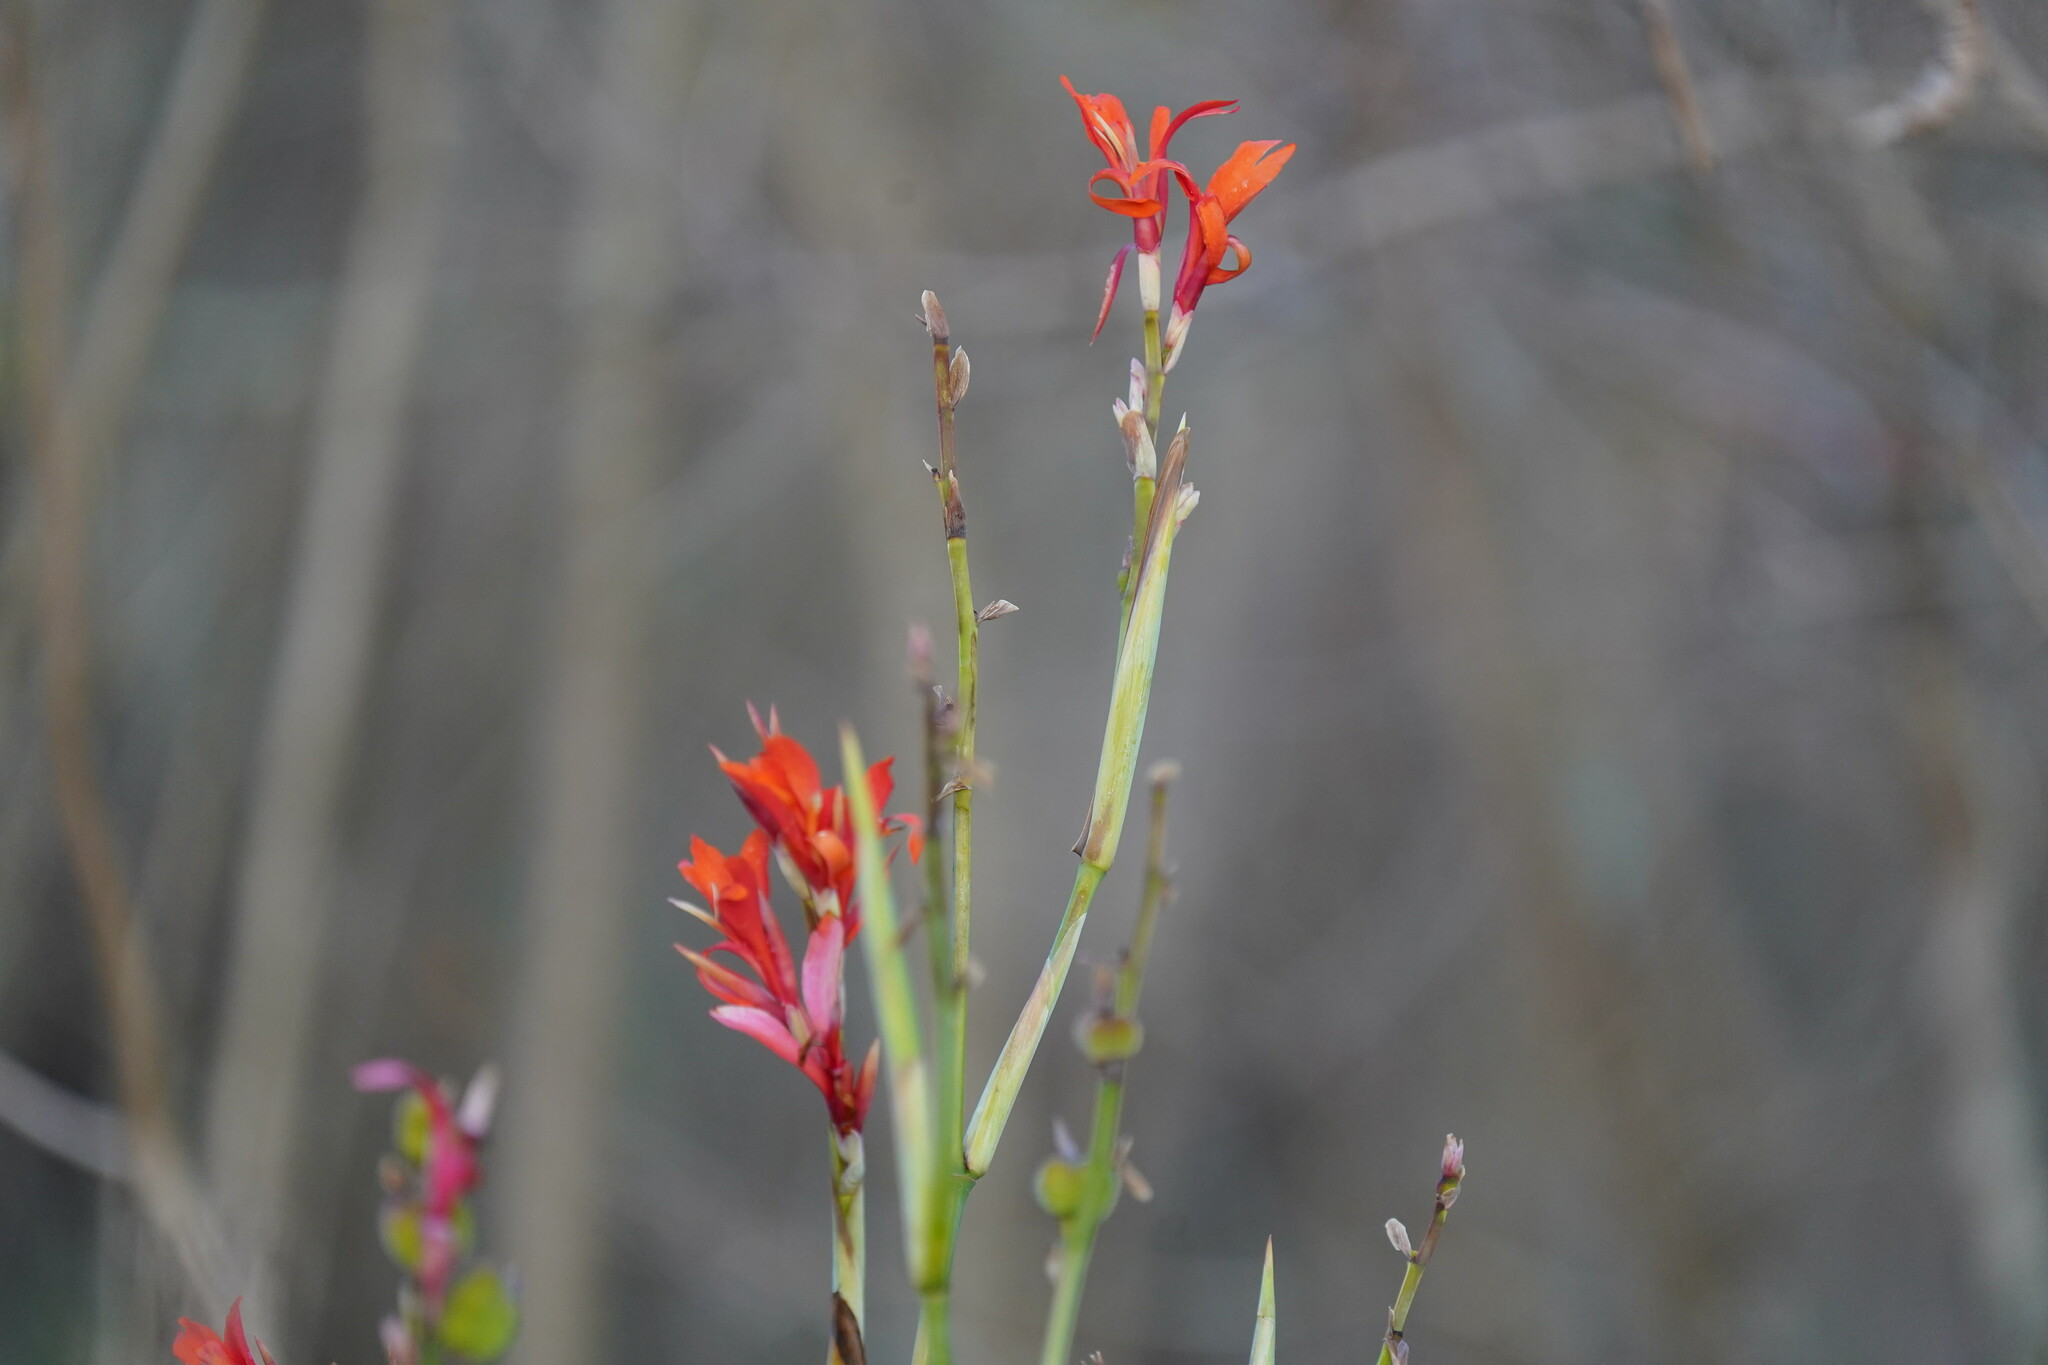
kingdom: Plantae
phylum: Tracheophyta
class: Liliopsida
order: Zingiberales
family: Cannaceae
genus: Canna
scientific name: Canna indica
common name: Indian shot
